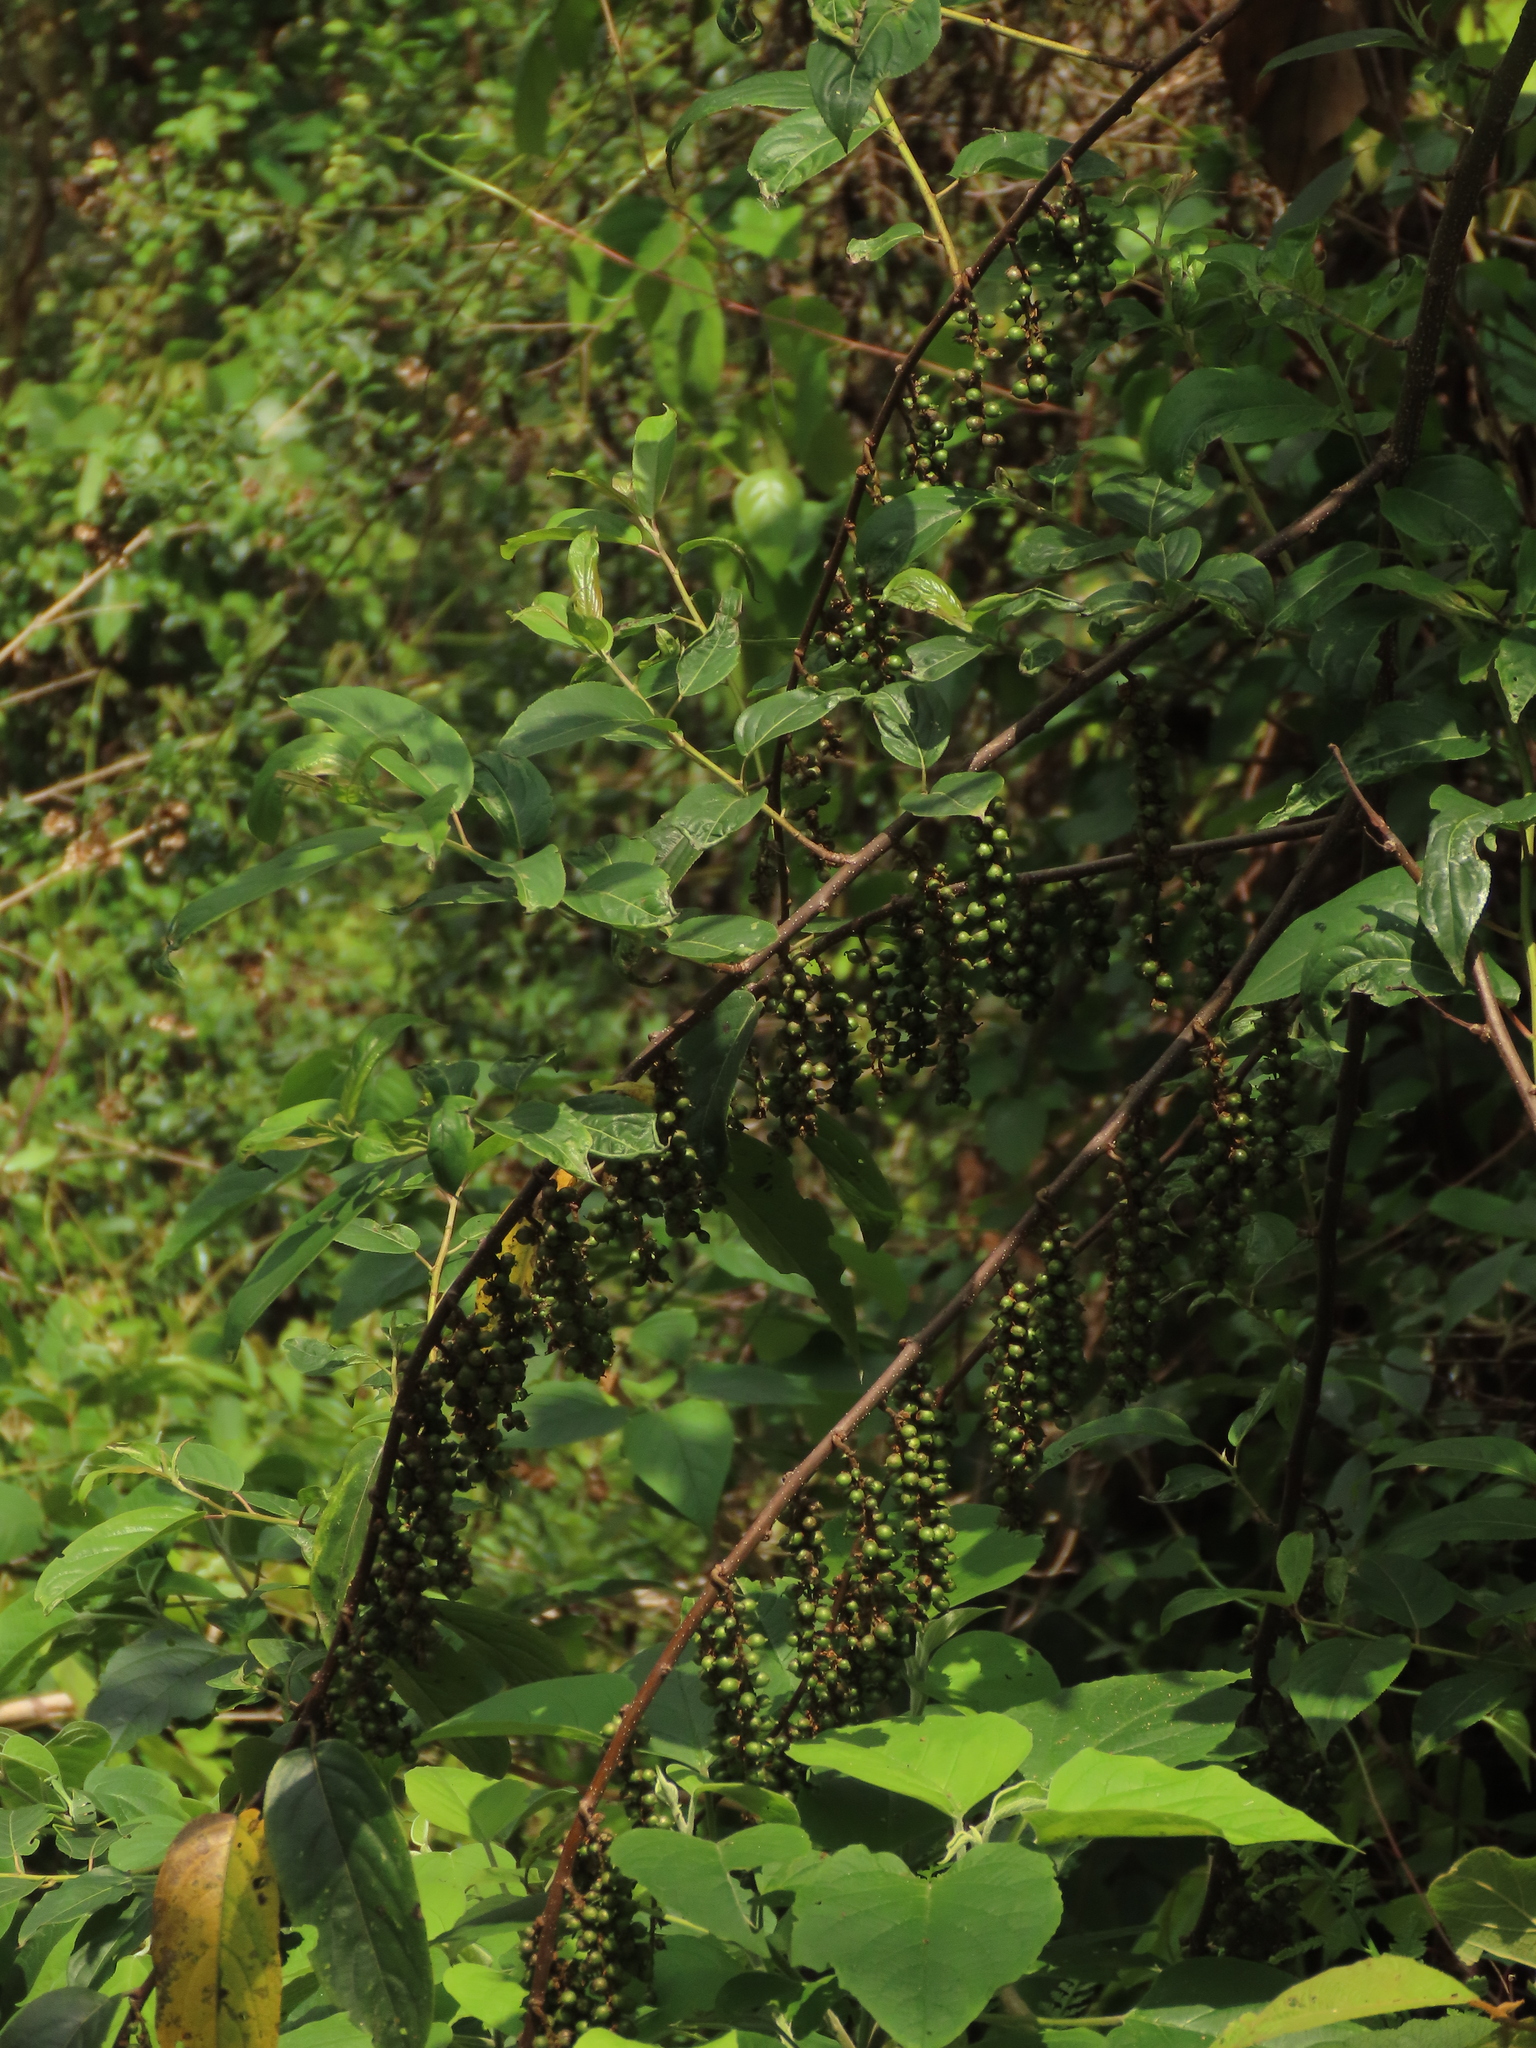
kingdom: Plantae
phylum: Tracheophyta
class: Magnoliopsida
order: Crossosomatales
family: Stachyuraceae
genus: Stachyurus
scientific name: Stachyurus himalaicus
